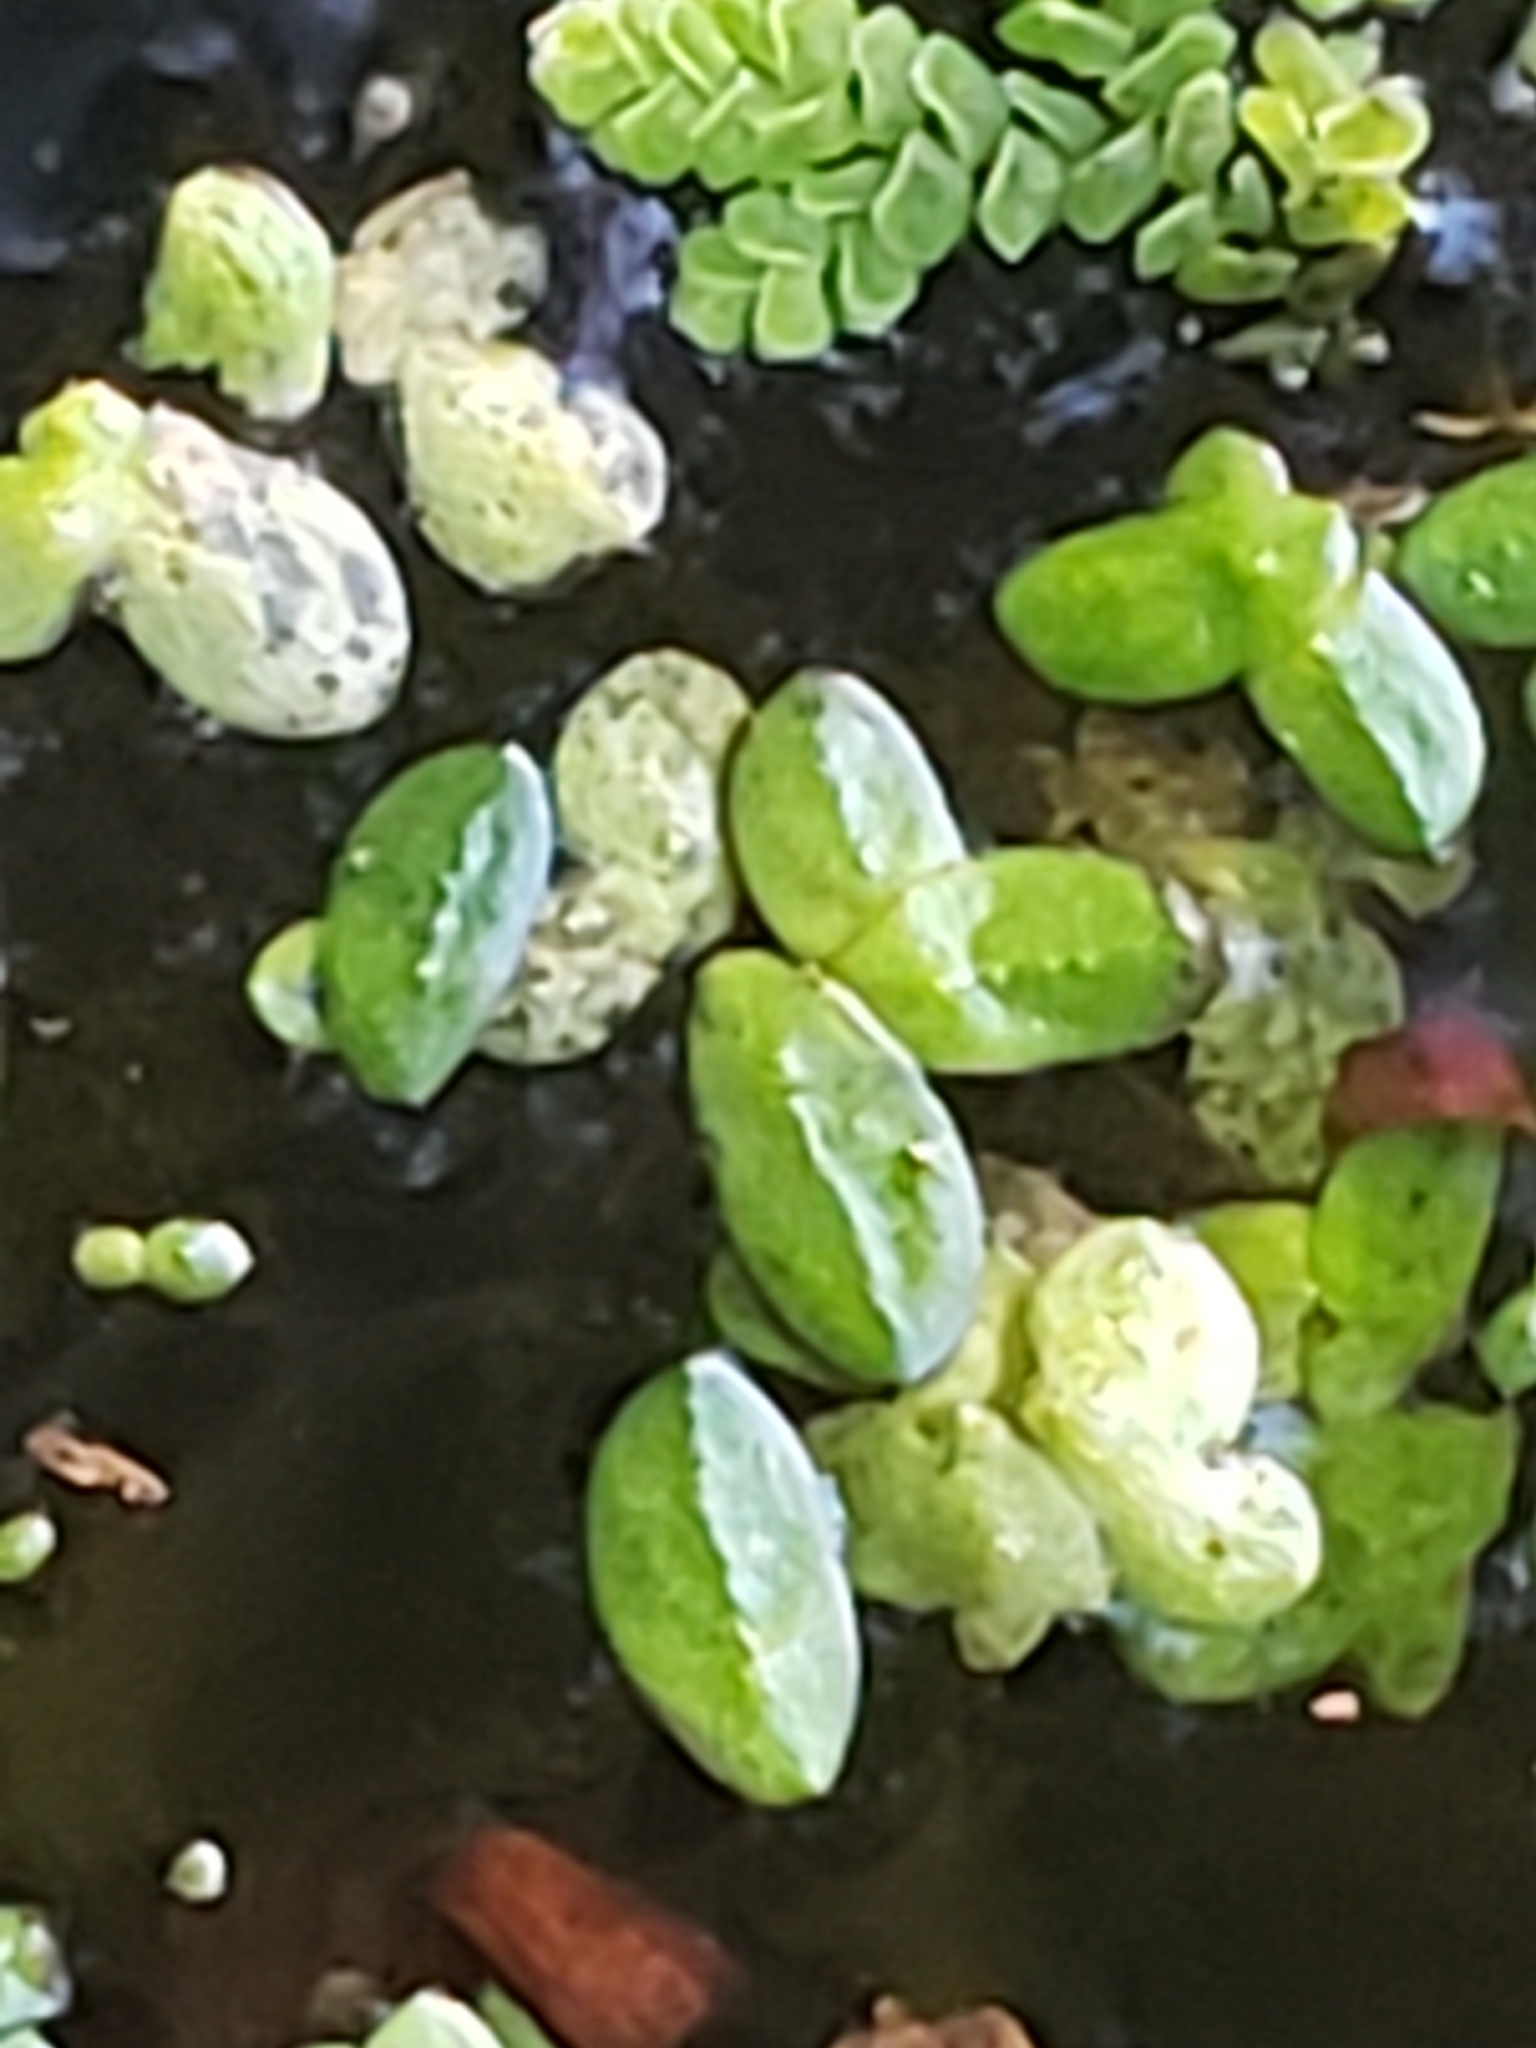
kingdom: Plantae
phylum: Tracheophyta
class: Liliopsida
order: Alismatales
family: Araceae
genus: Lemna
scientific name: Lemna minor
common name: Common duckweed
